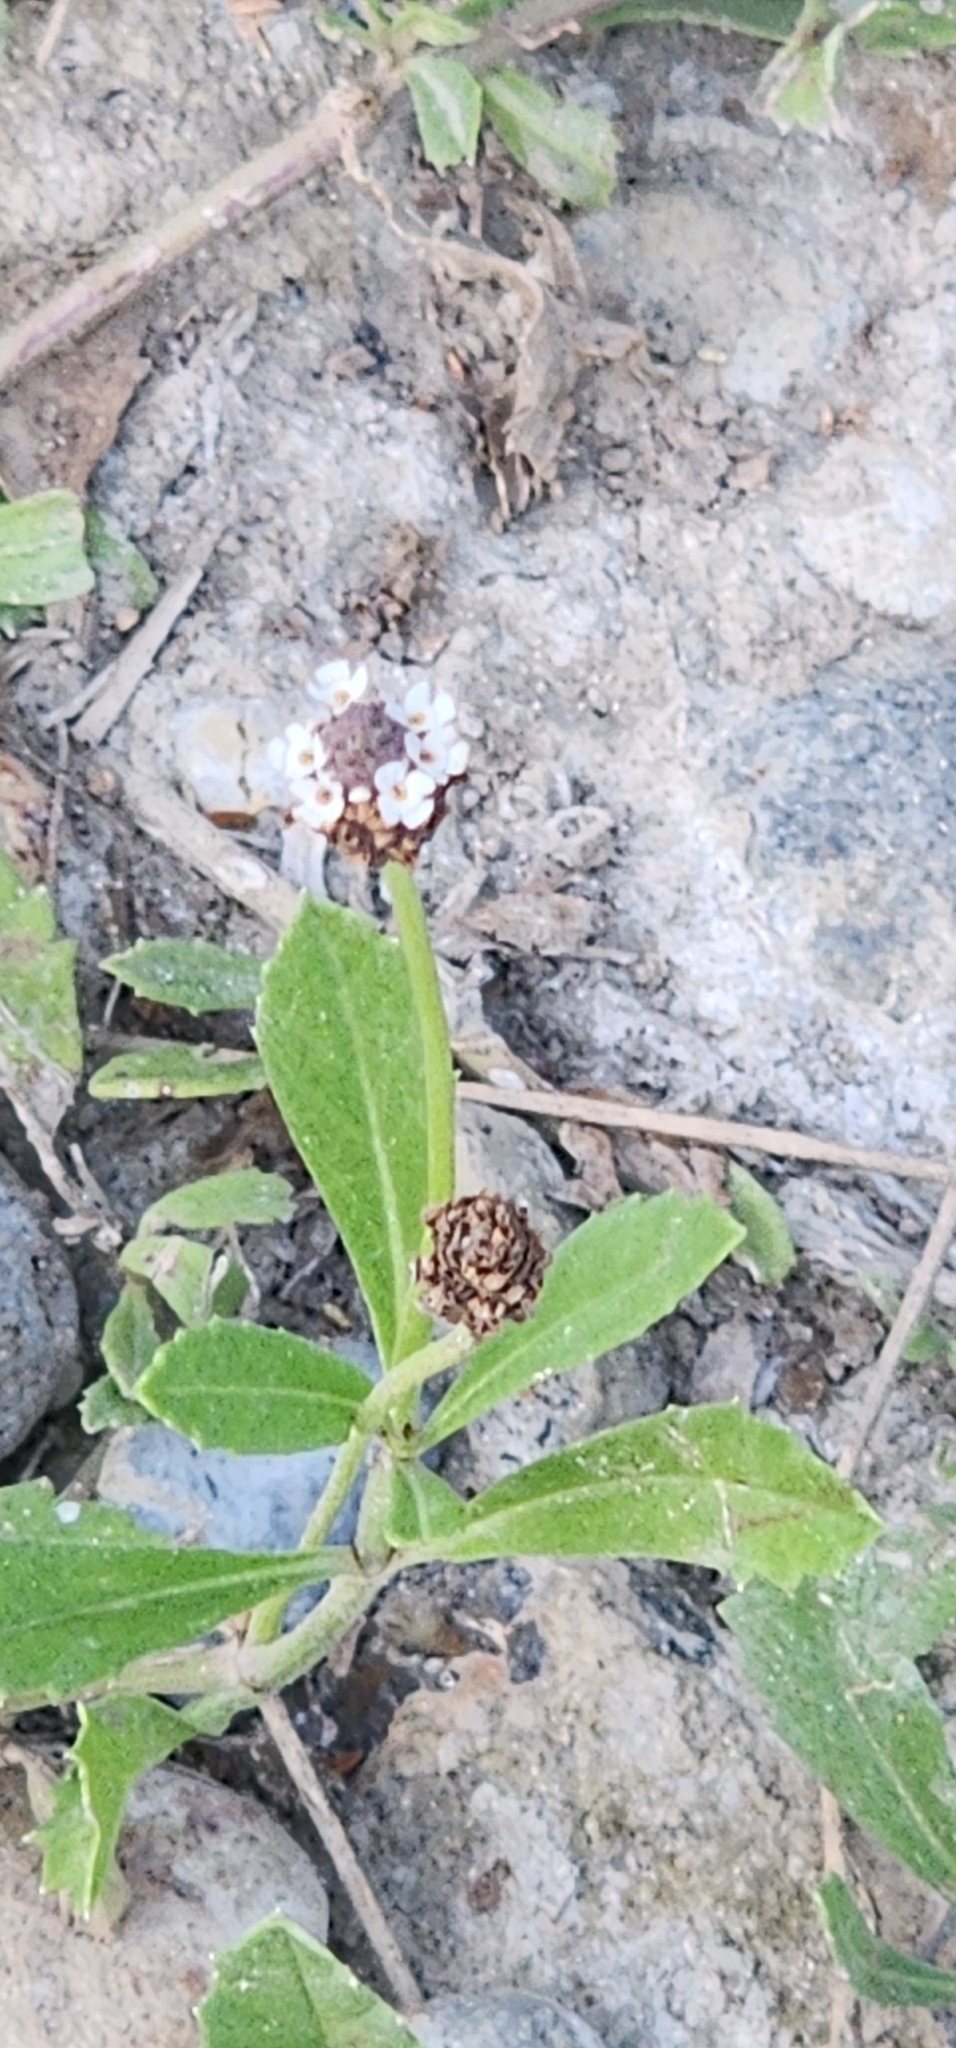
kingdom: Plantae
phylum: Tracheophyta
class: Magnoliopsida
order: Lamiales
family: Verbenaceae
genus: Phyla
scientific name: Phyla nodiflora
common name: Frogfruit
